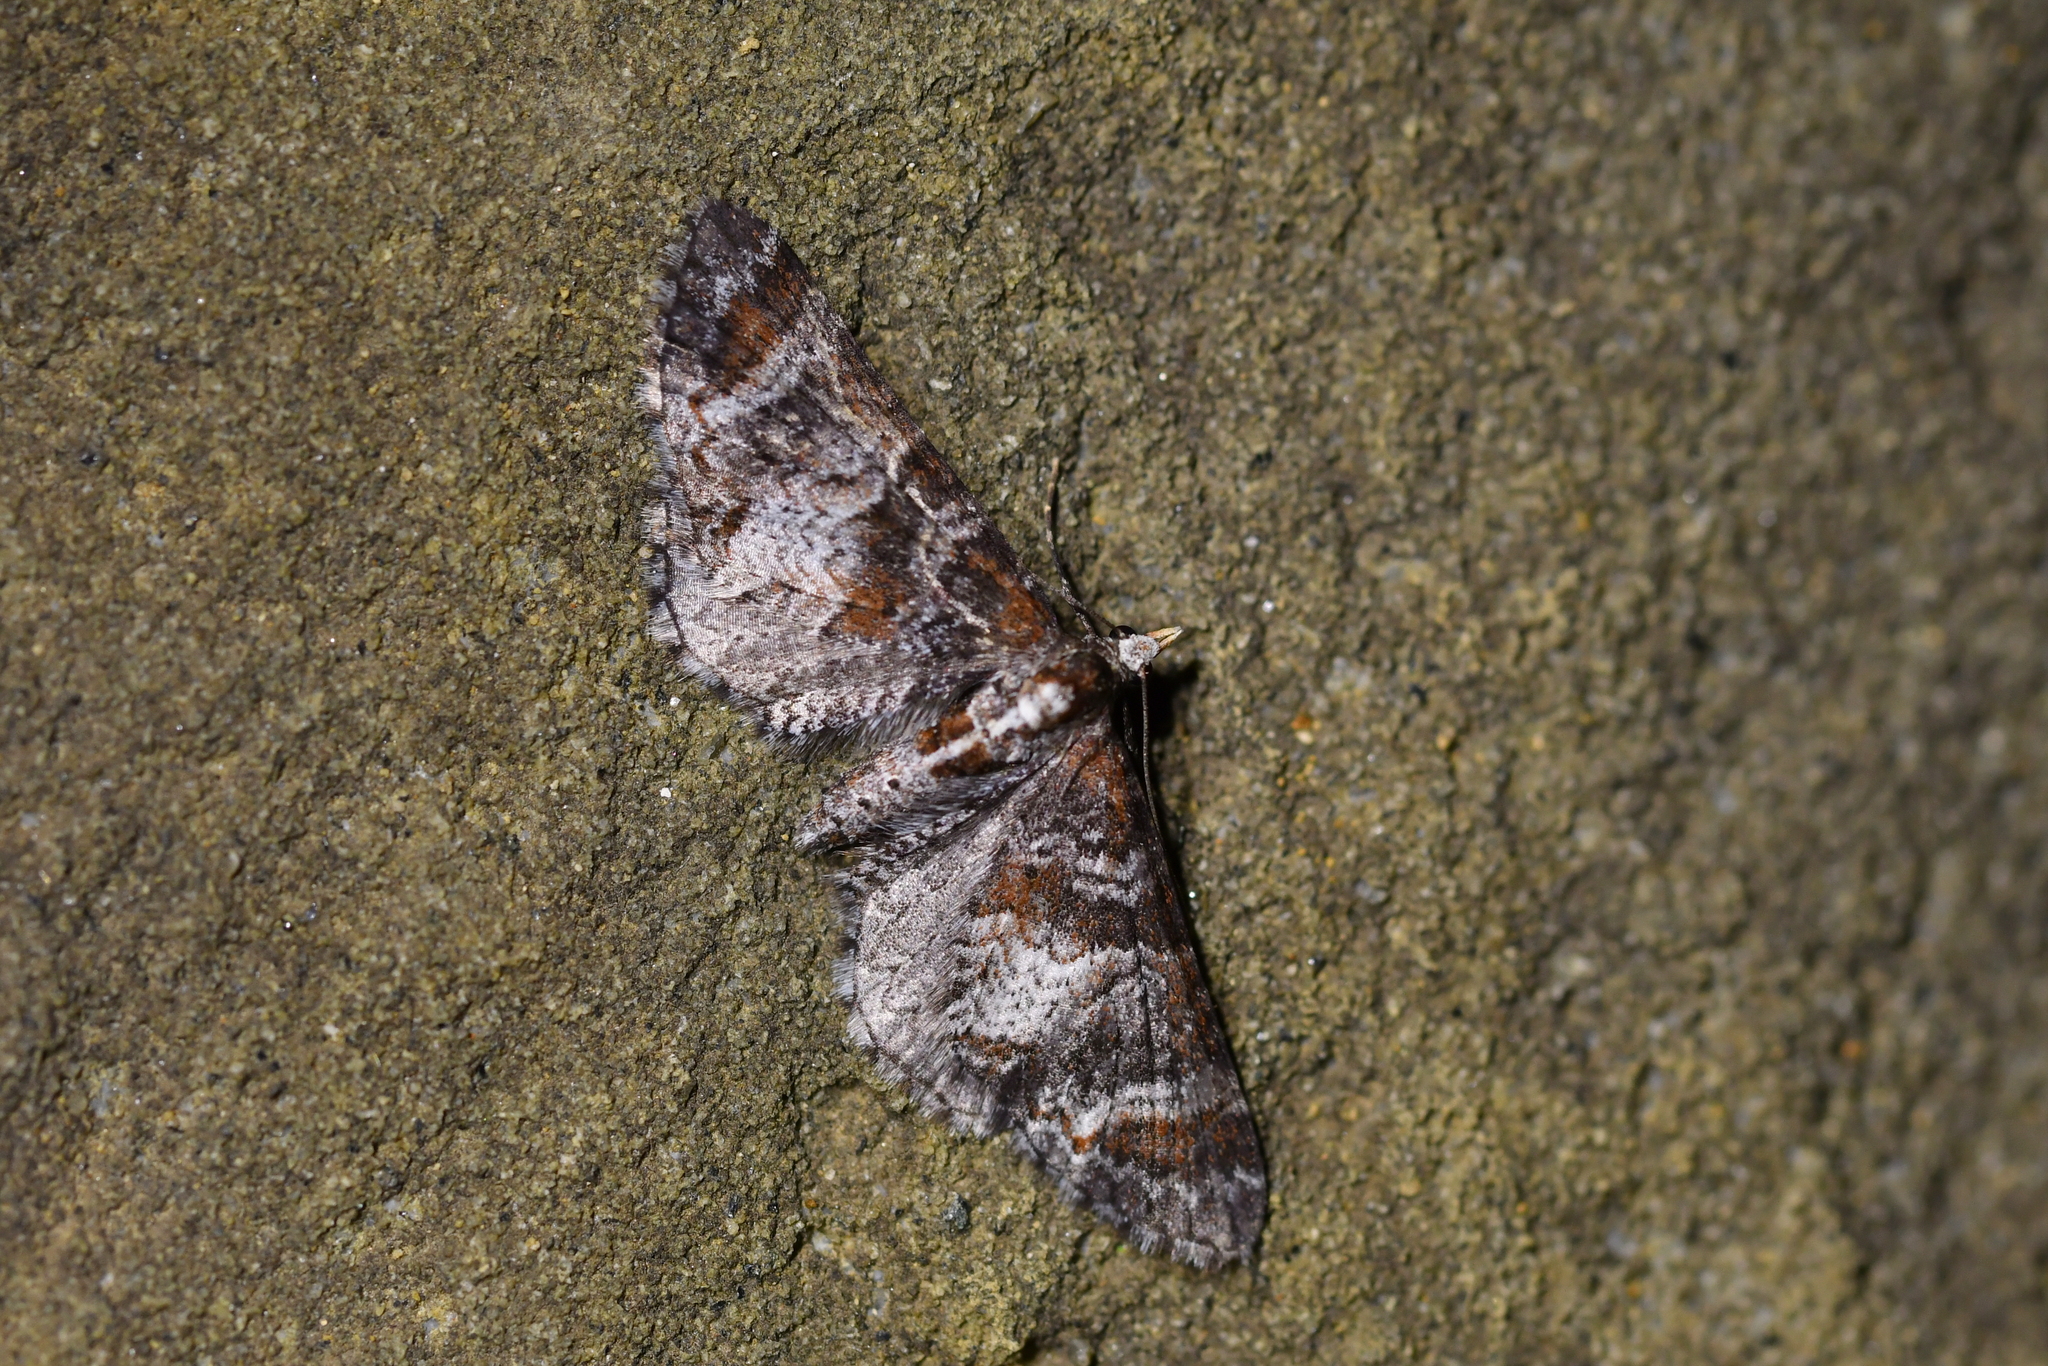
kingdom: Animalia
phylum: Arthropoda
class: Insecta
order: Lepidoptera
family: Geometridae
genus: Pasiphila
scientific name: Pasiphila halianthes
